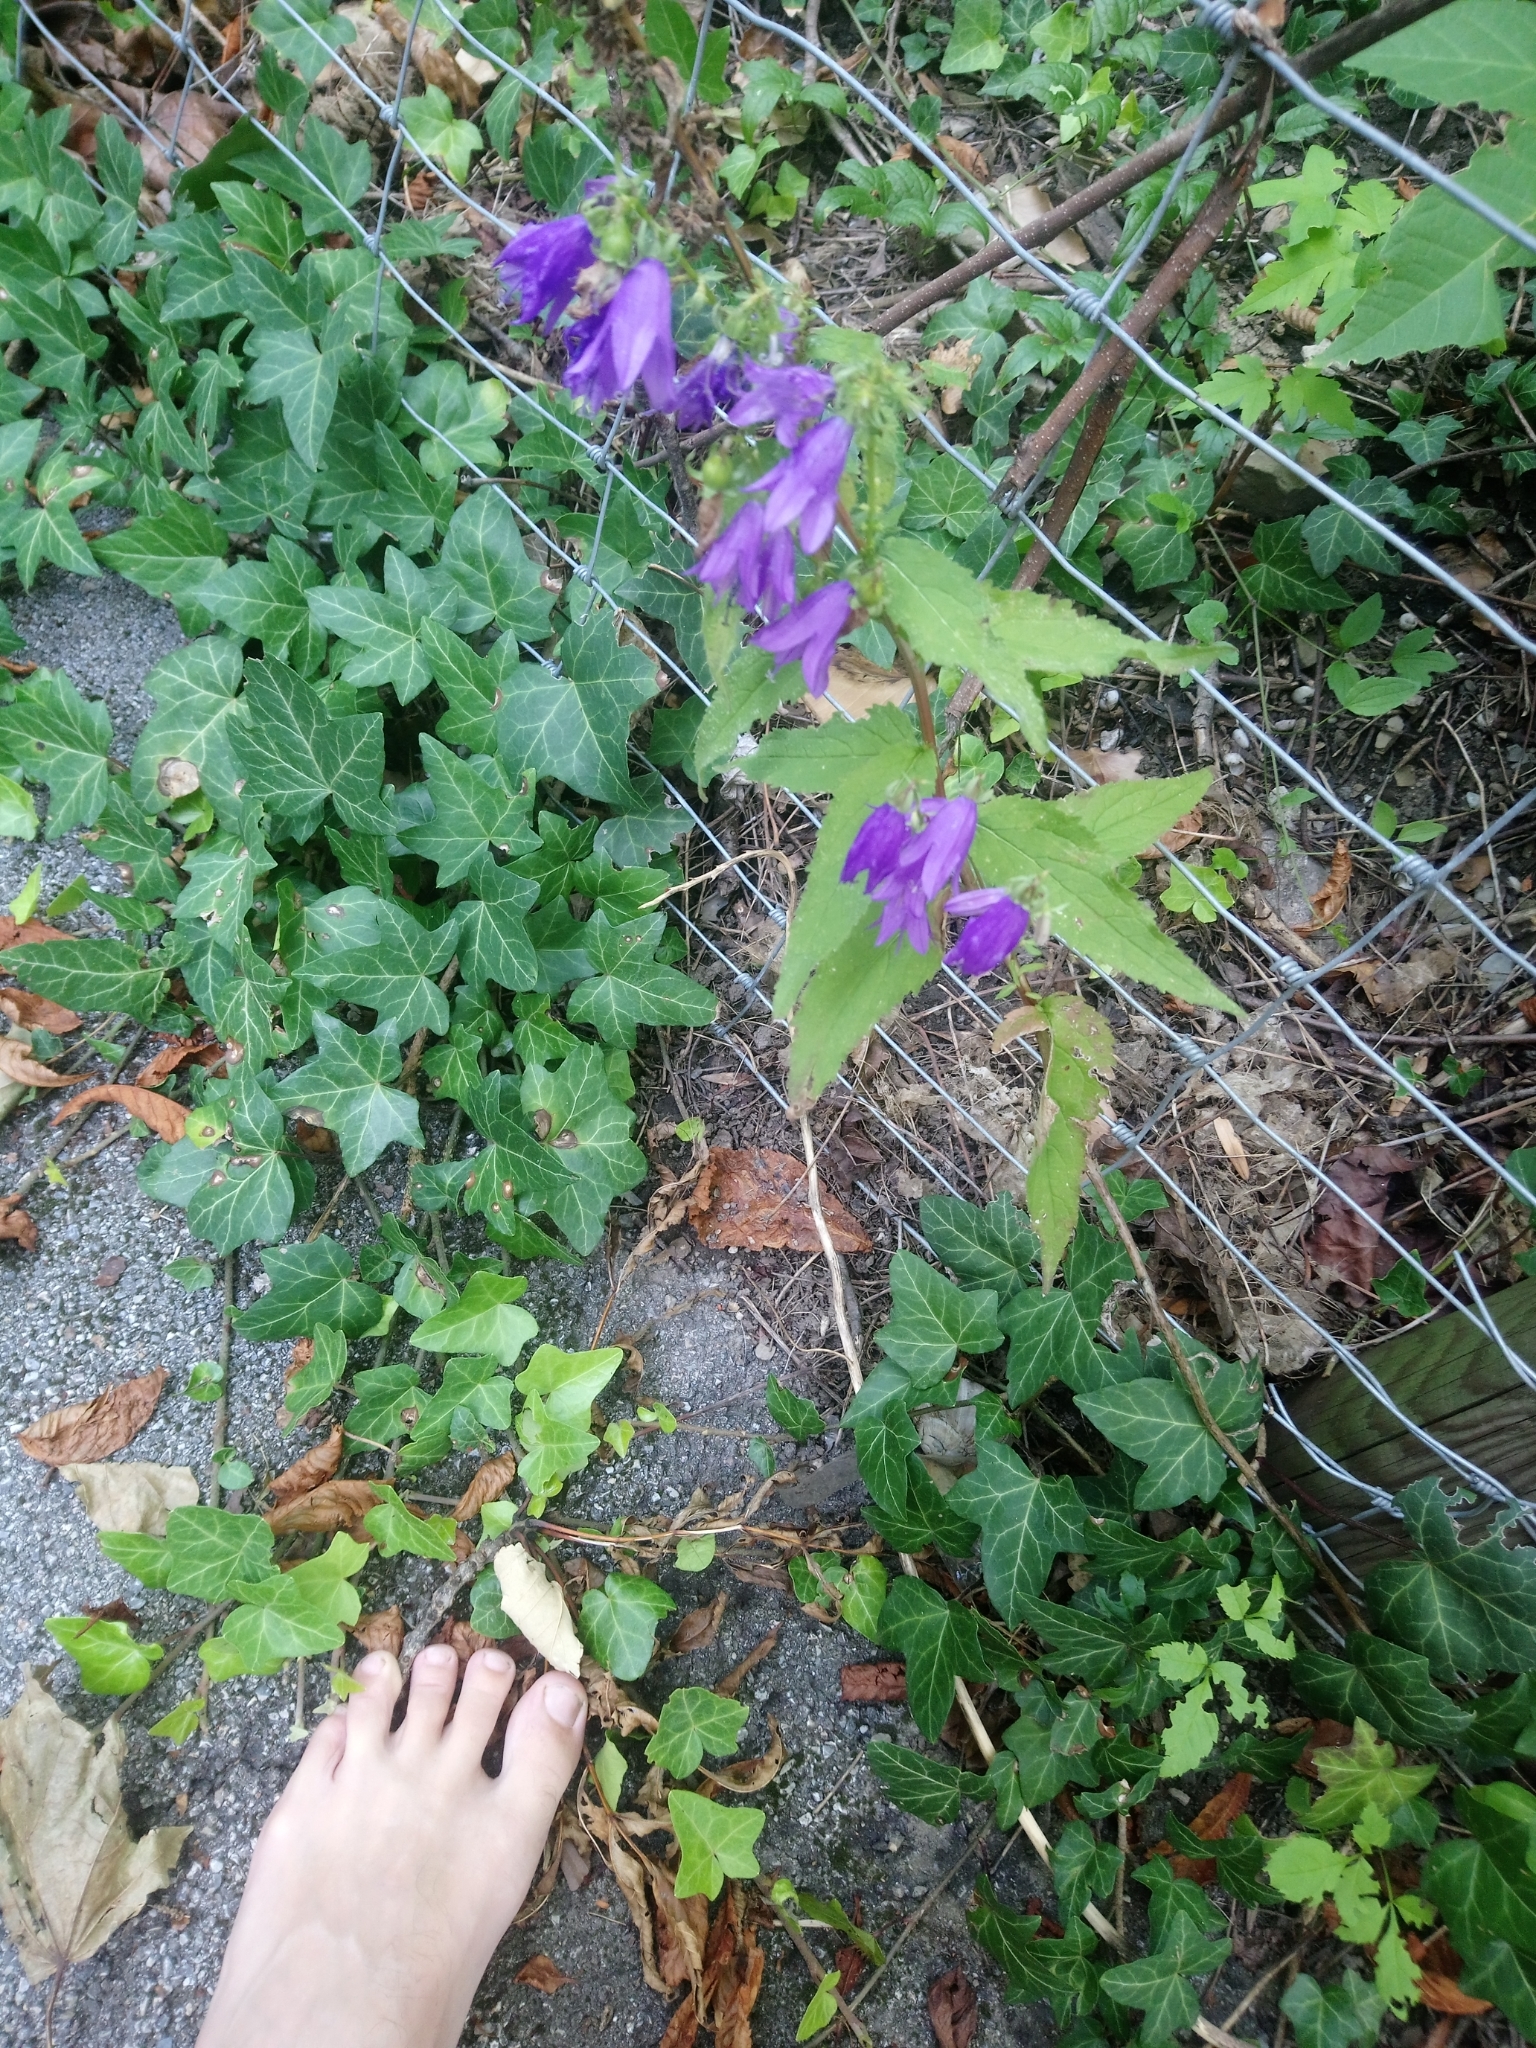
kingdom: Plantae
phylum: Tracheophyta
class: Magnoliopsida
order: Asterales
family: Campanulaceae
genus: Campanula
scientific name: Campanula rapunculoides
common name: Creeping bellflower
